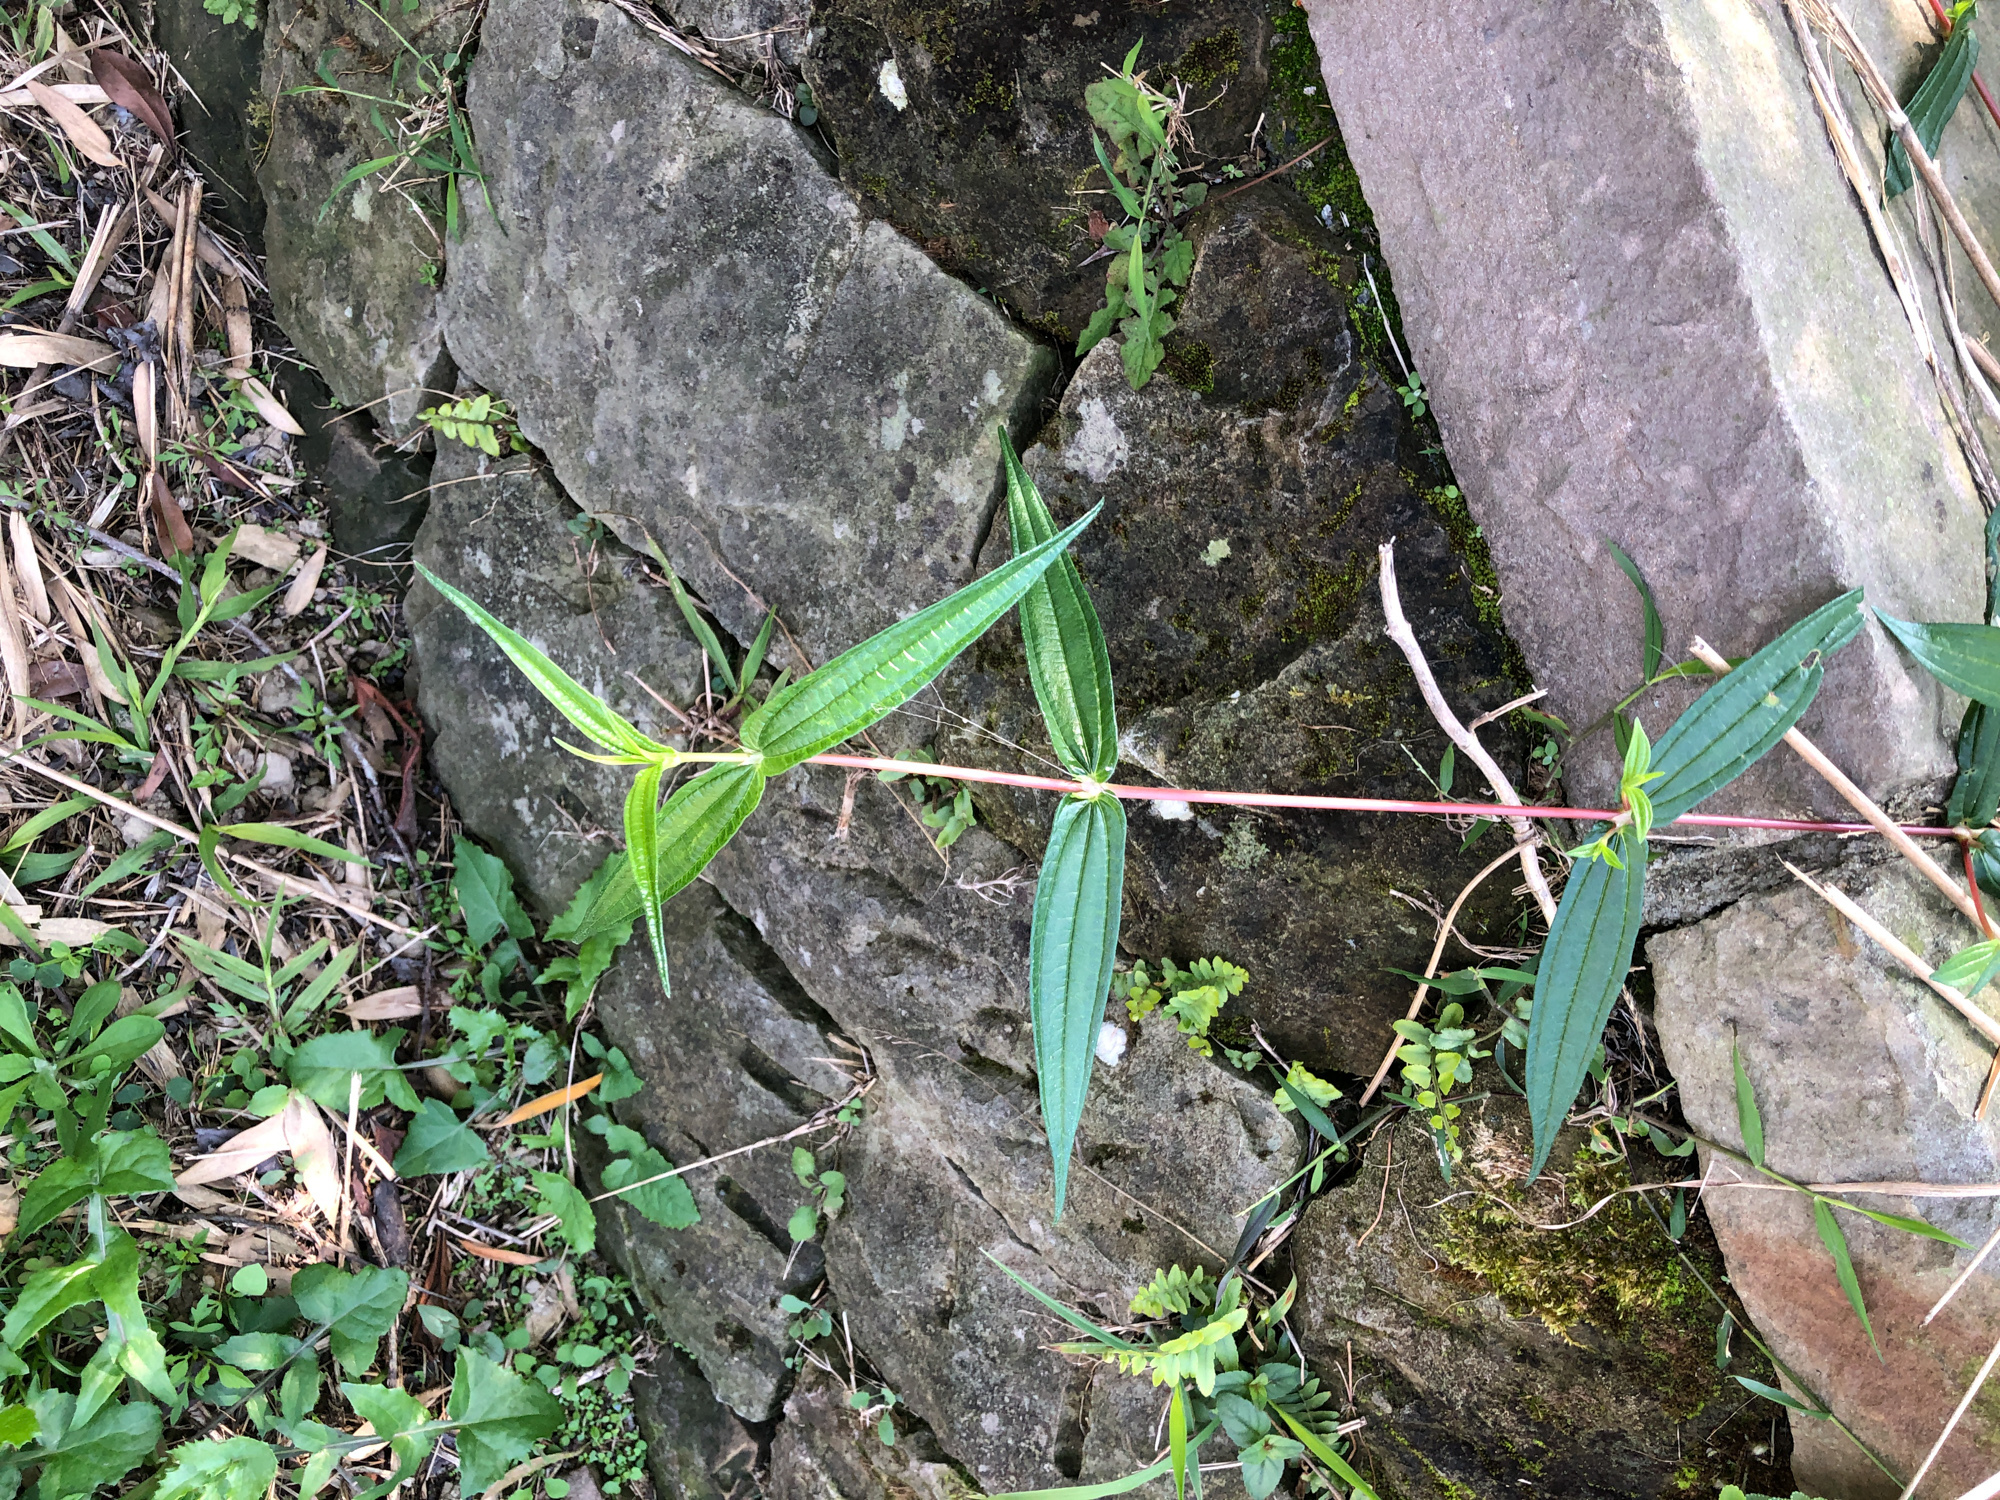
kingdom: Plantae
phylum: Tracheophyta
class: Magnoliopsida
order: Rosales
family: Urticaceae
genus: Gonostegia
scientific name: Gonostegia triandra
